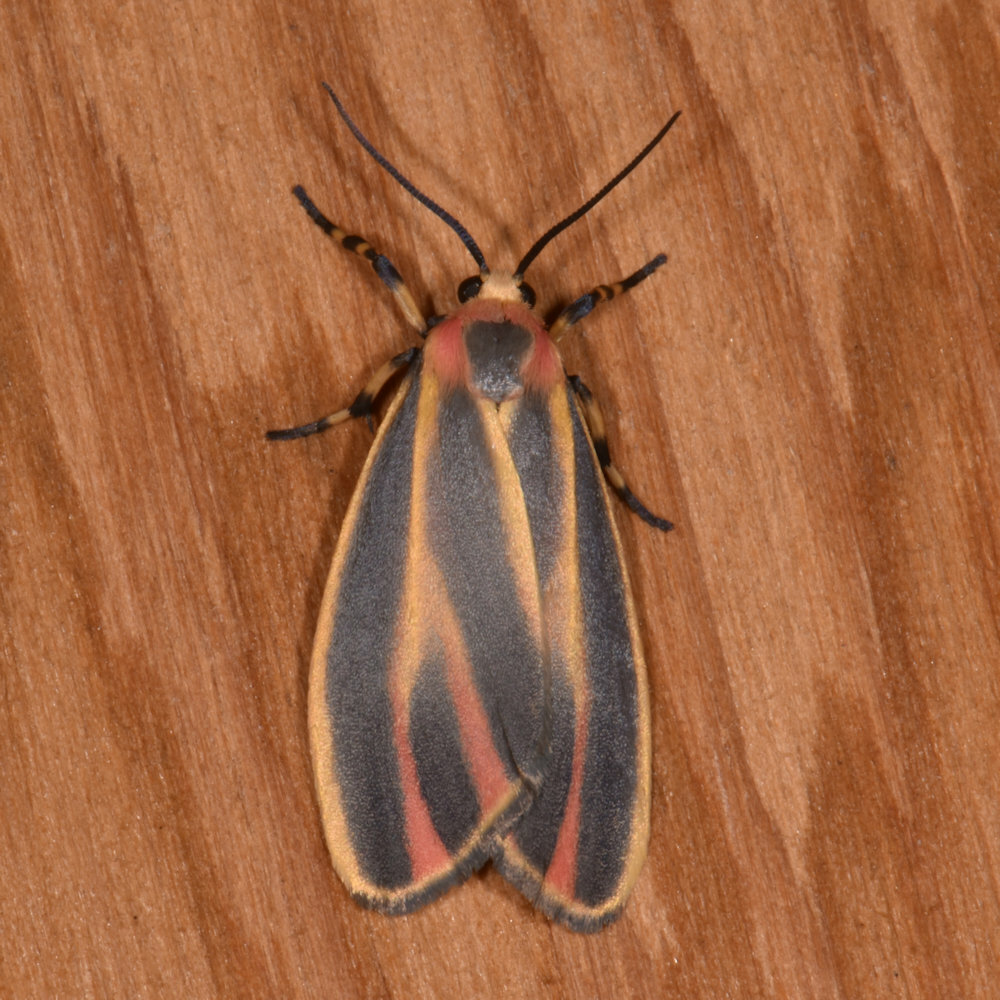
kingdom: Animalia
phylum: Arthropoda
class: Insecta
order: Lepidoptera
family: Erebidae
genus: Hypoprepia
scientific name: Hypoprepia fucosa
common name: Painted lichen moth
